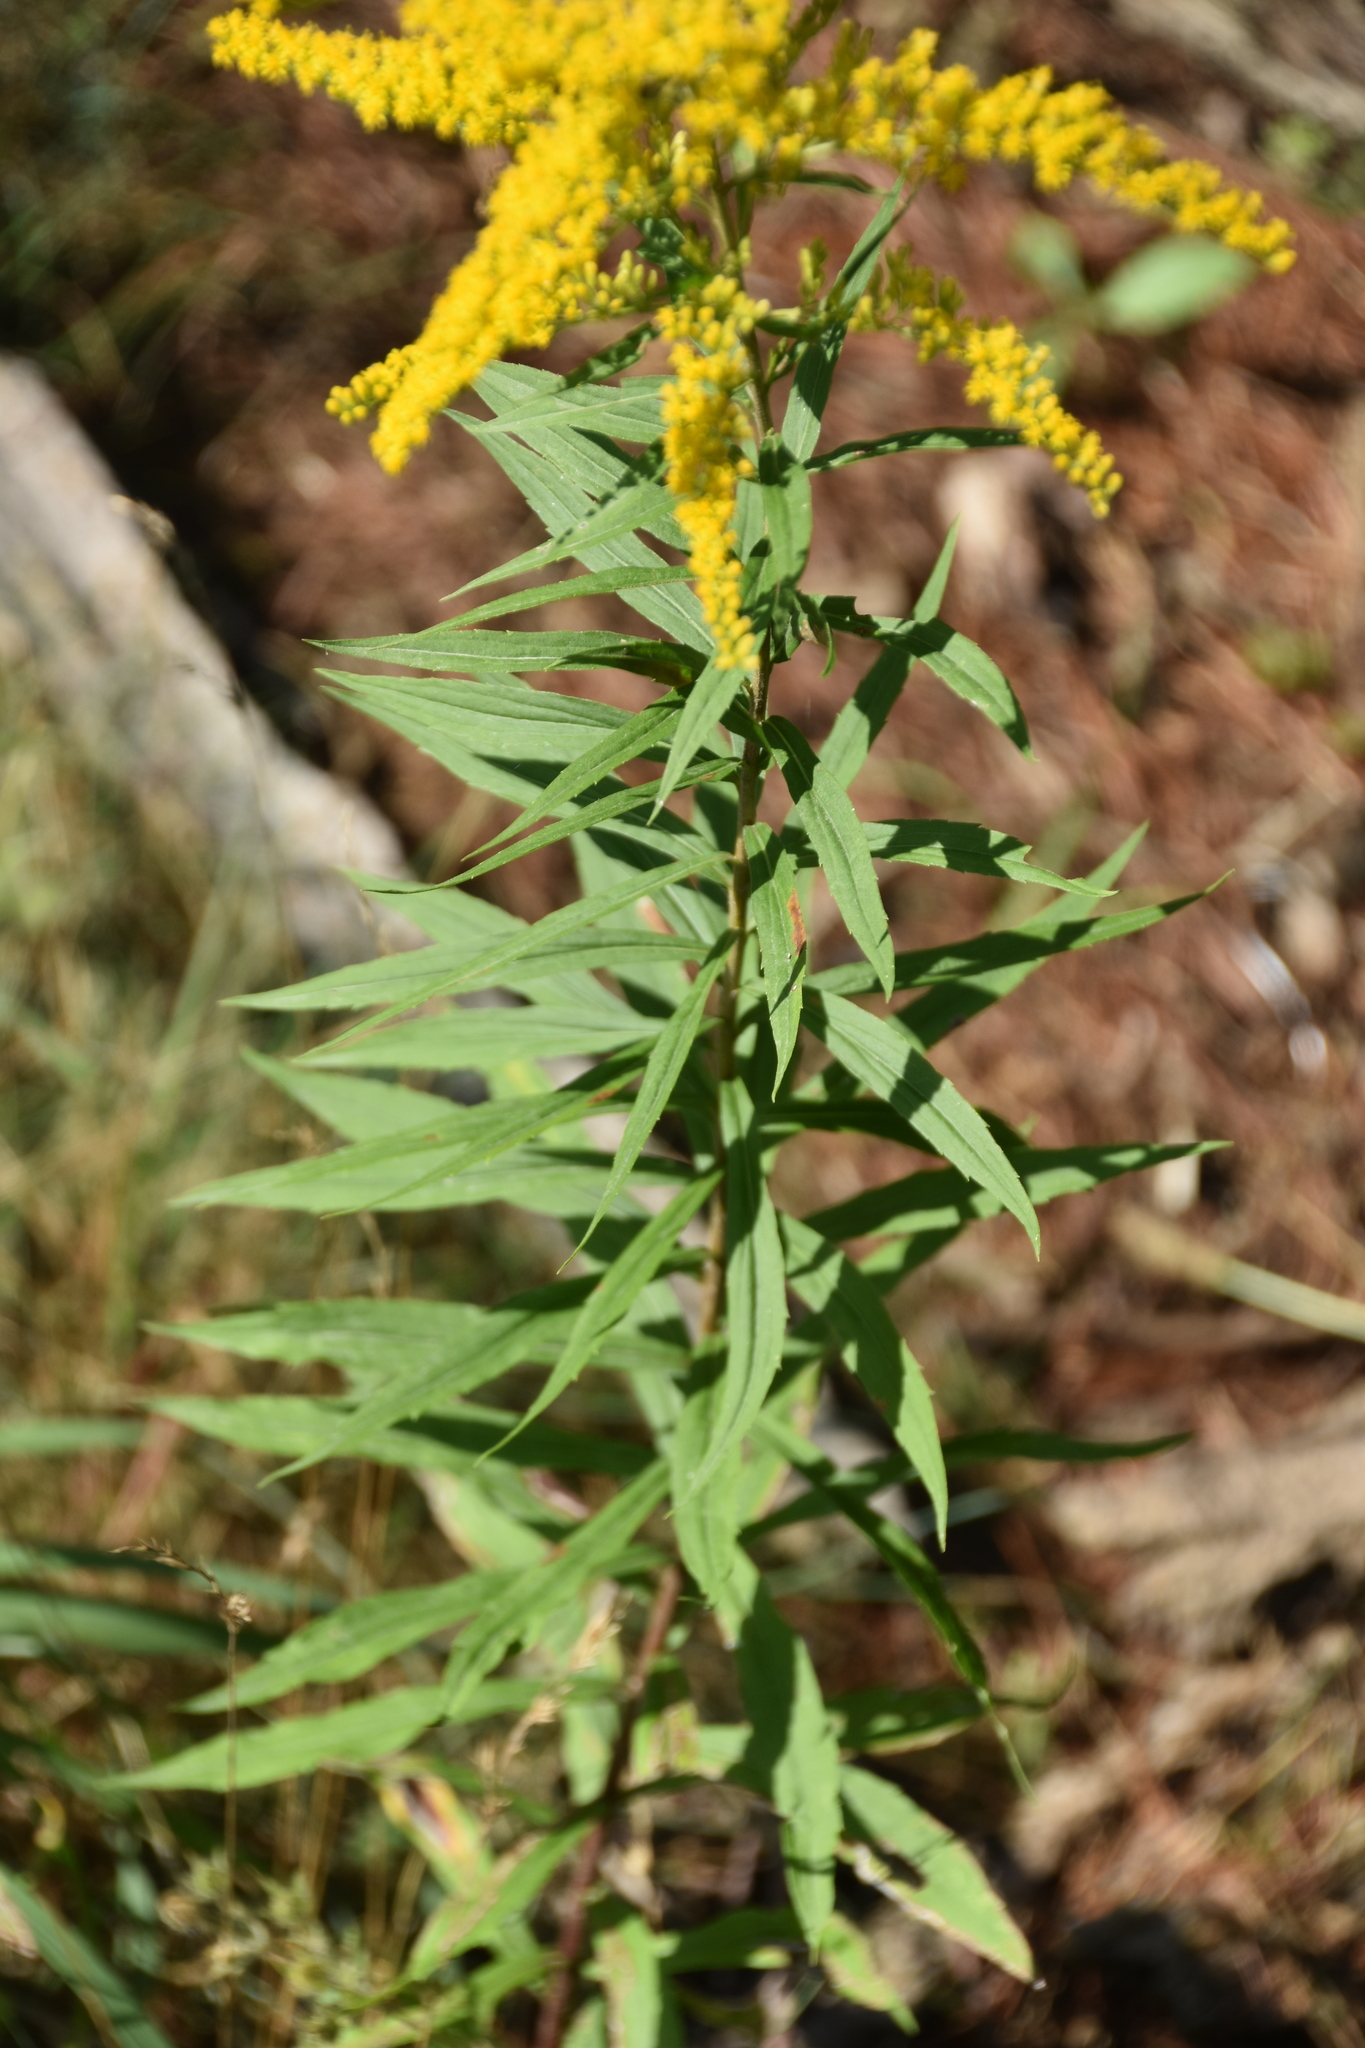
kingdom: Plantae
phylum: Tracheophyta
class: Magnoliopsida
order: Asterales
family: Asteraceae
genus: Solidago
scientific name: Solidago canadensis
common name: Canada goldenrod
